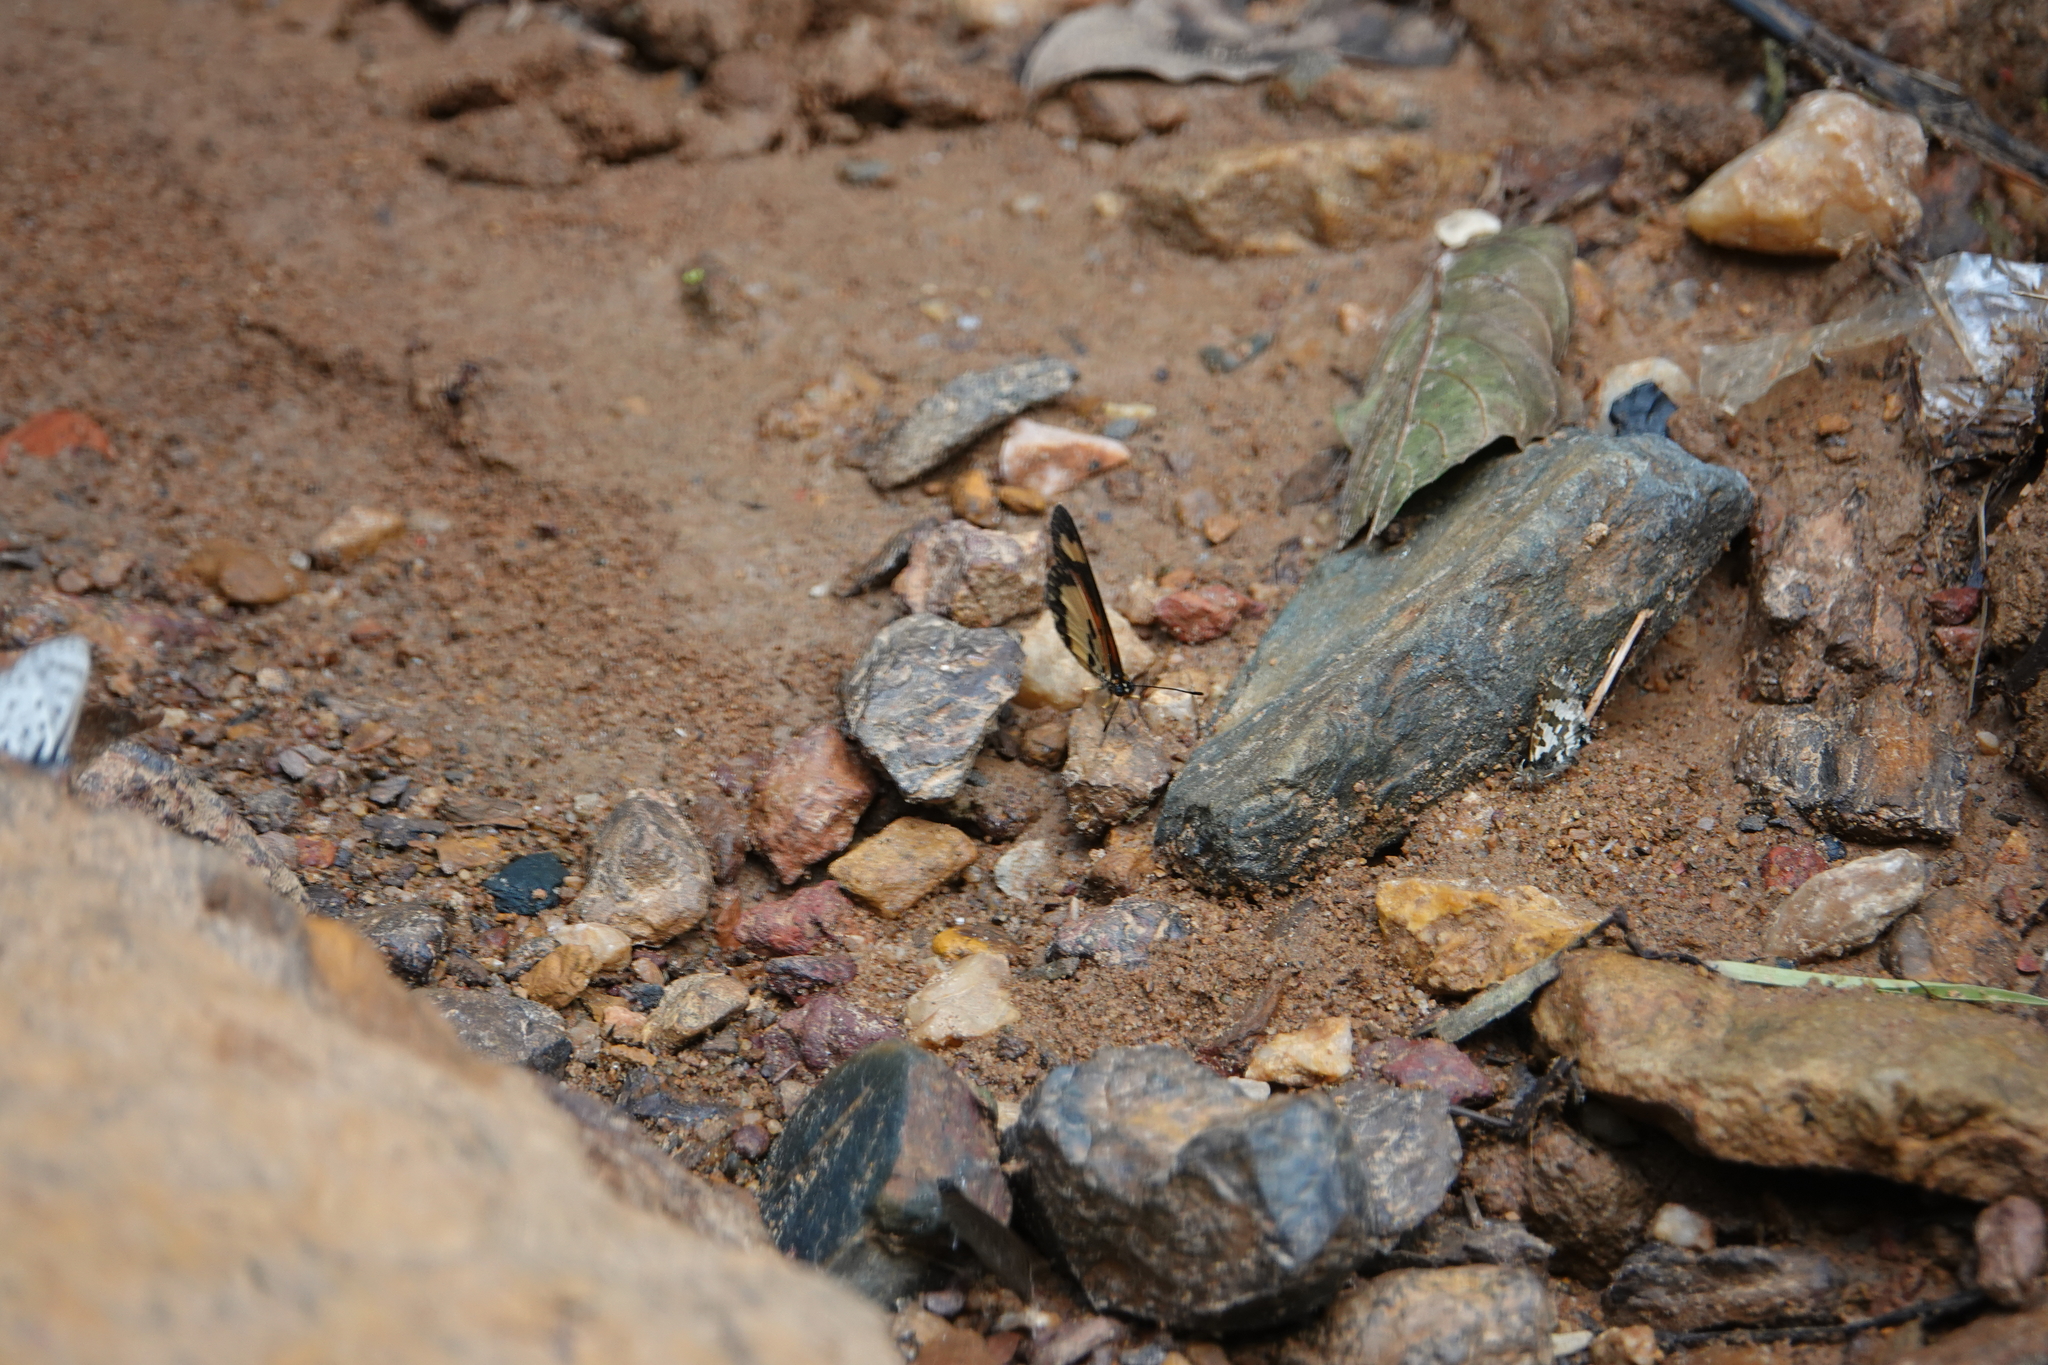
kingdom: Animalia
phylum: Arthropoda
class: Insecta
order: Lepidoptera
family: Nymphalidae
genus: Acraea
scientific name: Acraea Telchinia bonasia
